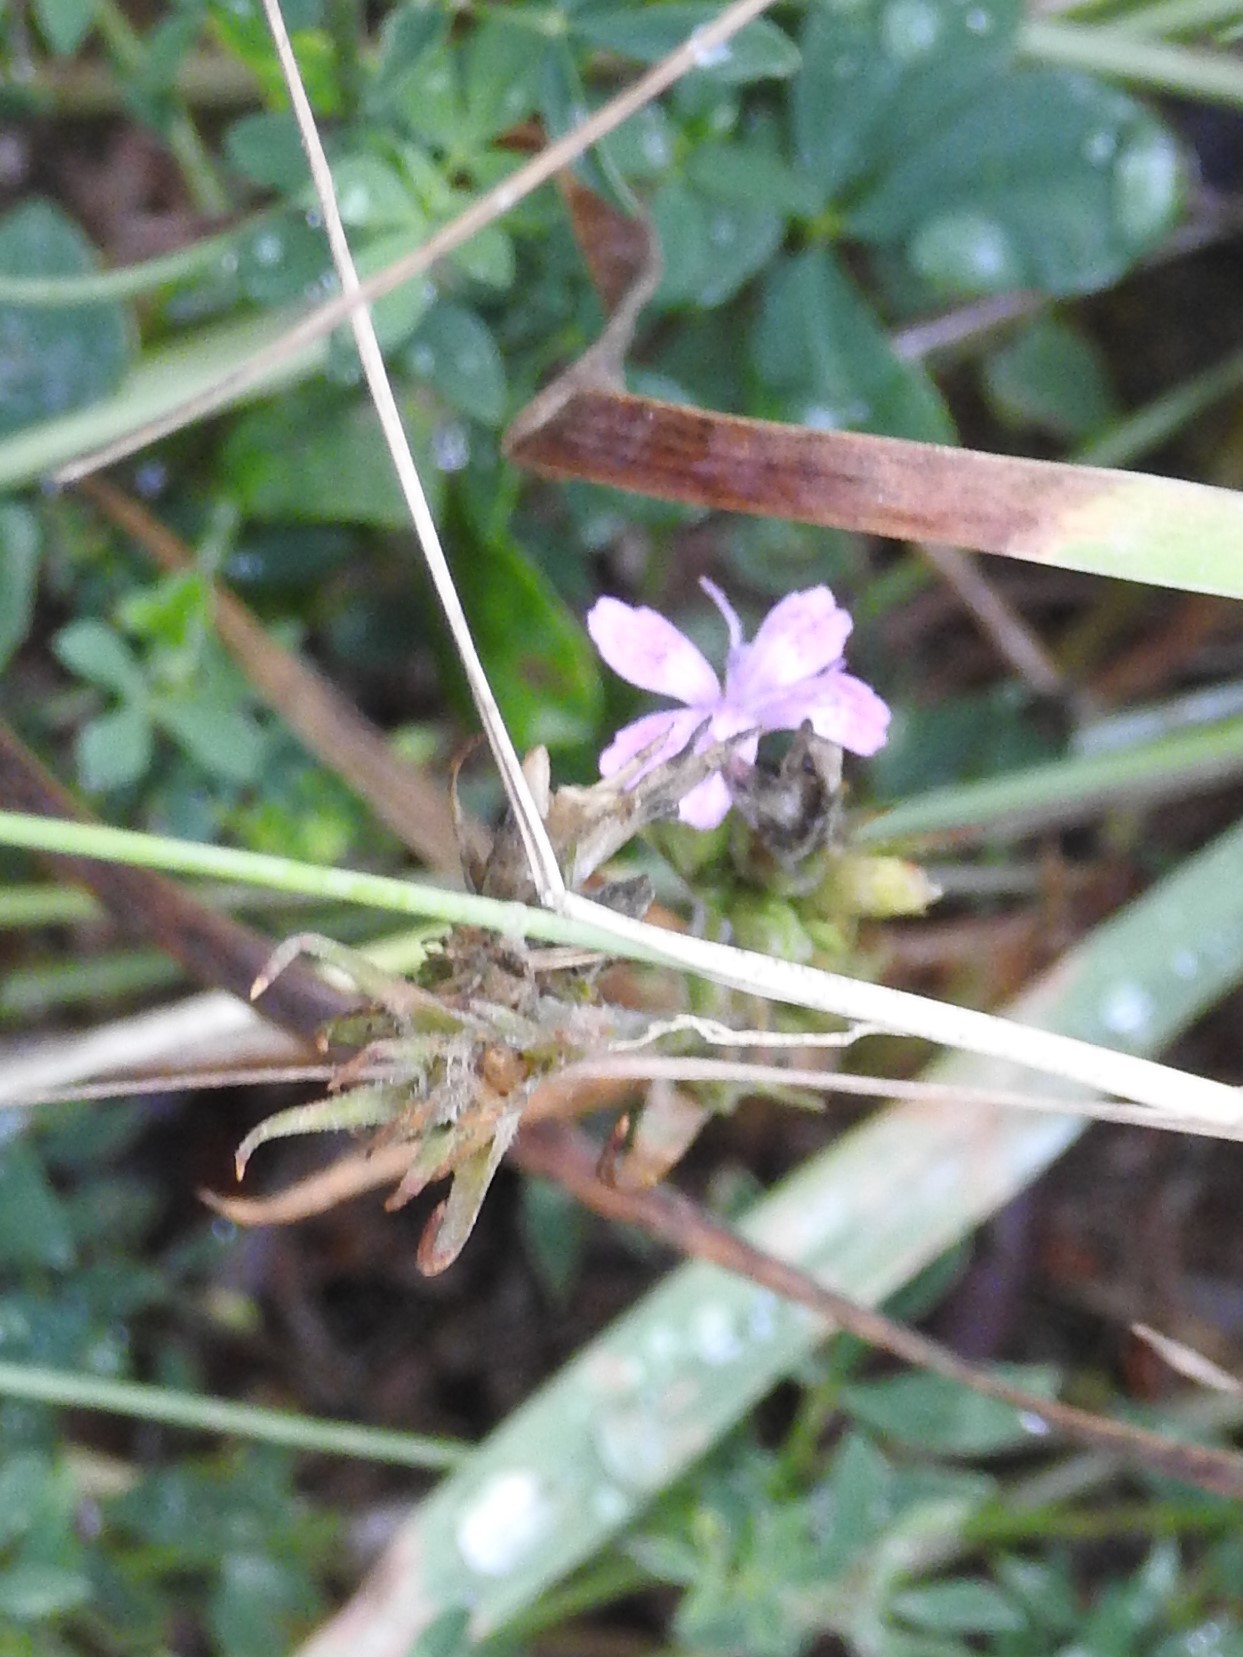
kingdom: Plantae
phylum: Tracheophyta
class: Magnoliopsida
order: Caryophyllales
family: Caryophyllaceae
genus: Dianthus
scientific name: Dianthus armeria
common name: Deptford pink
